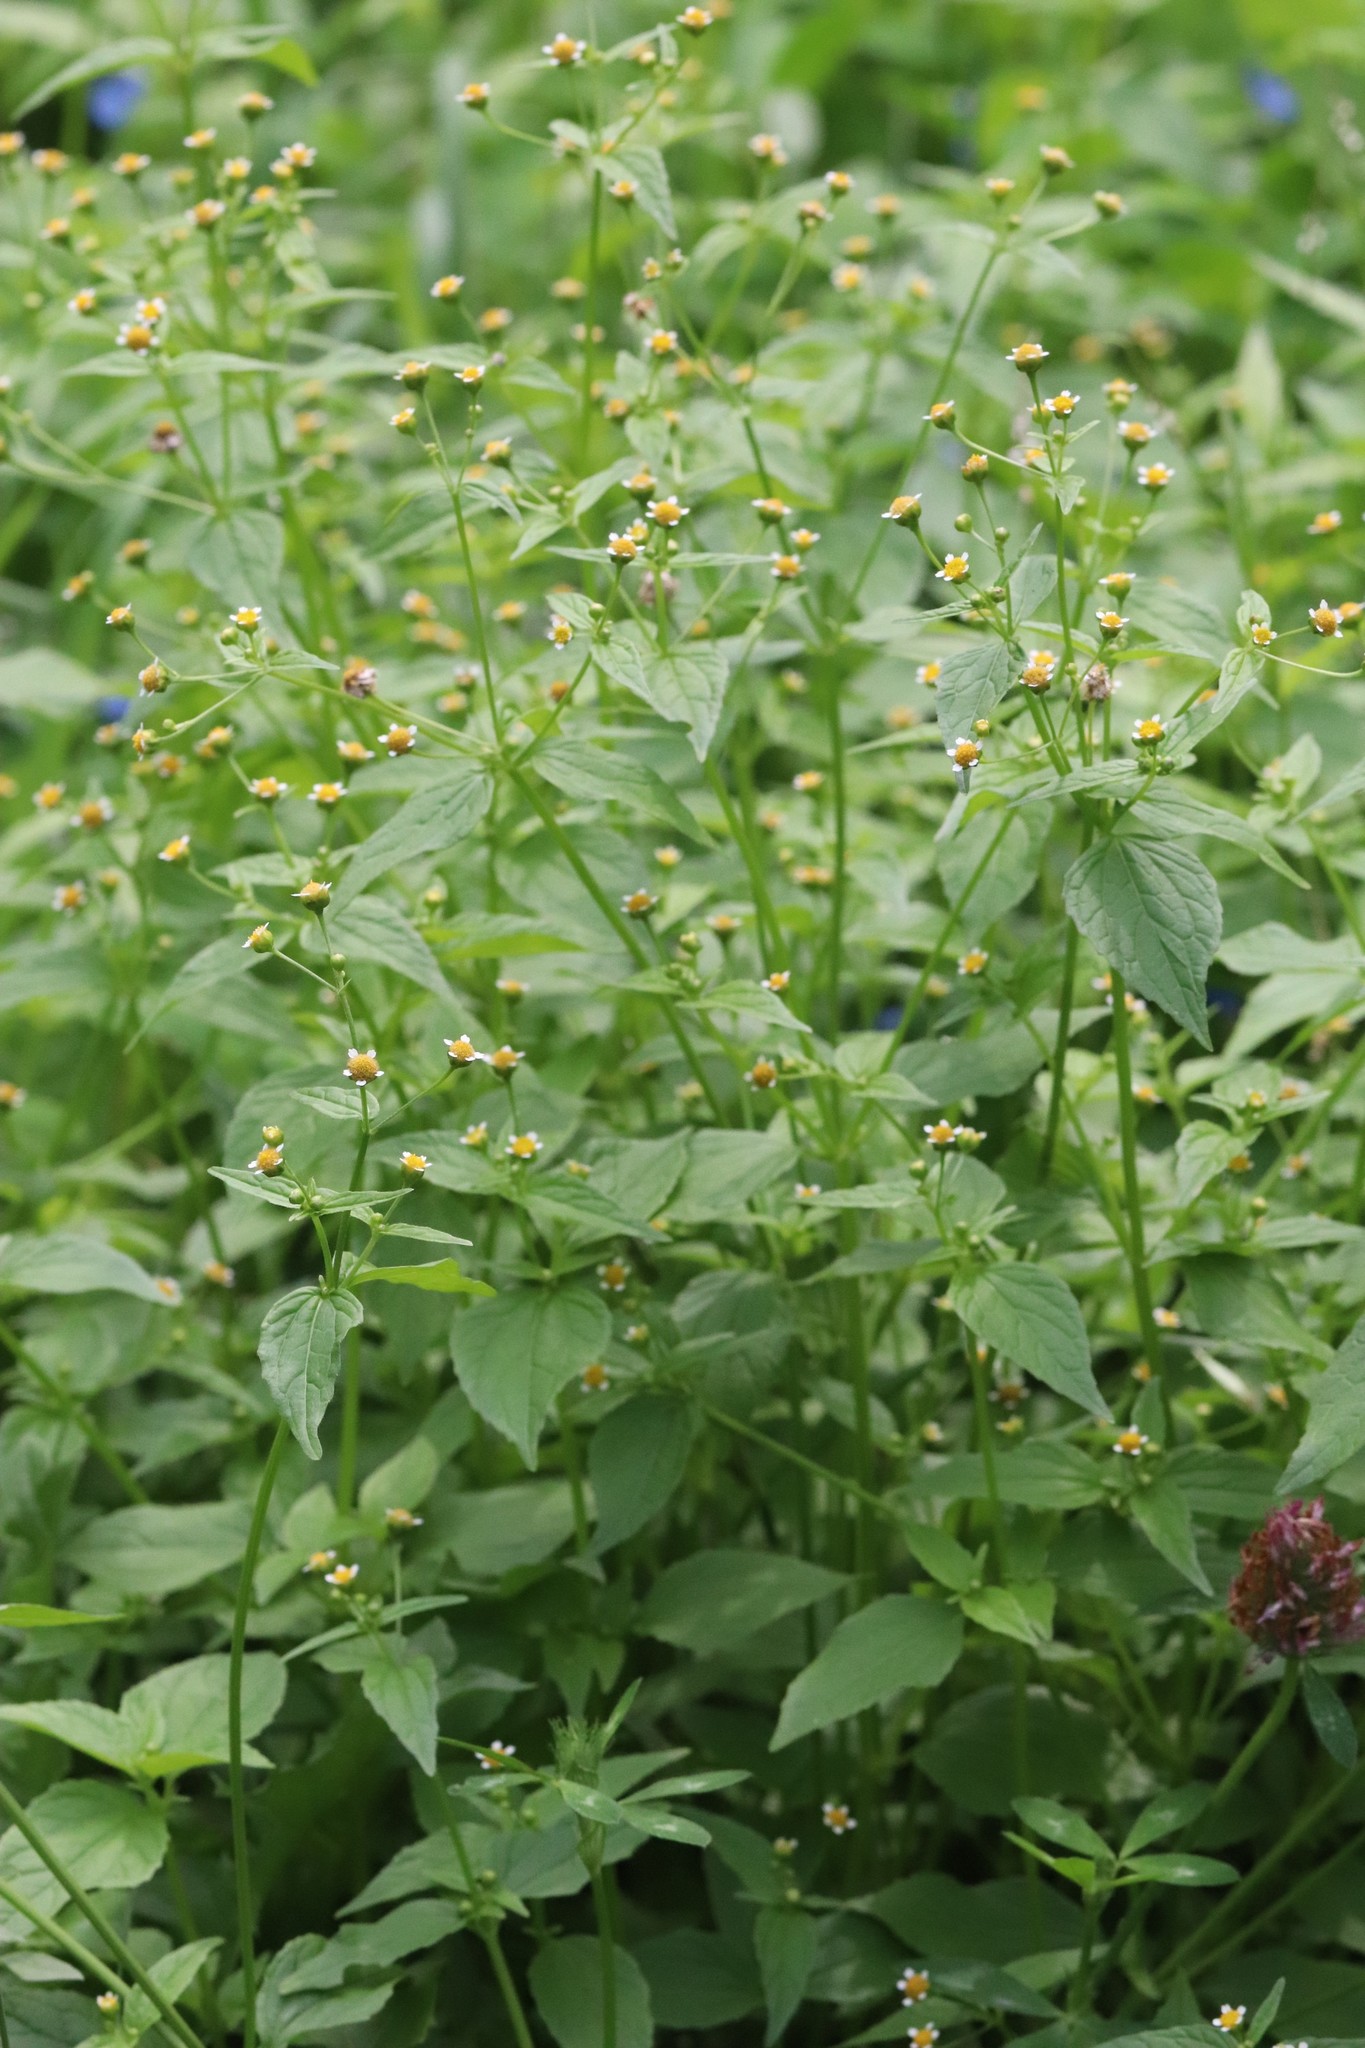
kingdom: Plantae
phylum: Tracheophyta
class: Magnoliopsida
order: Asterales
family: Asteraceae
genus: Galinsoga
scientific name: Galinsoga parviflora
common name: Gallant soldier
